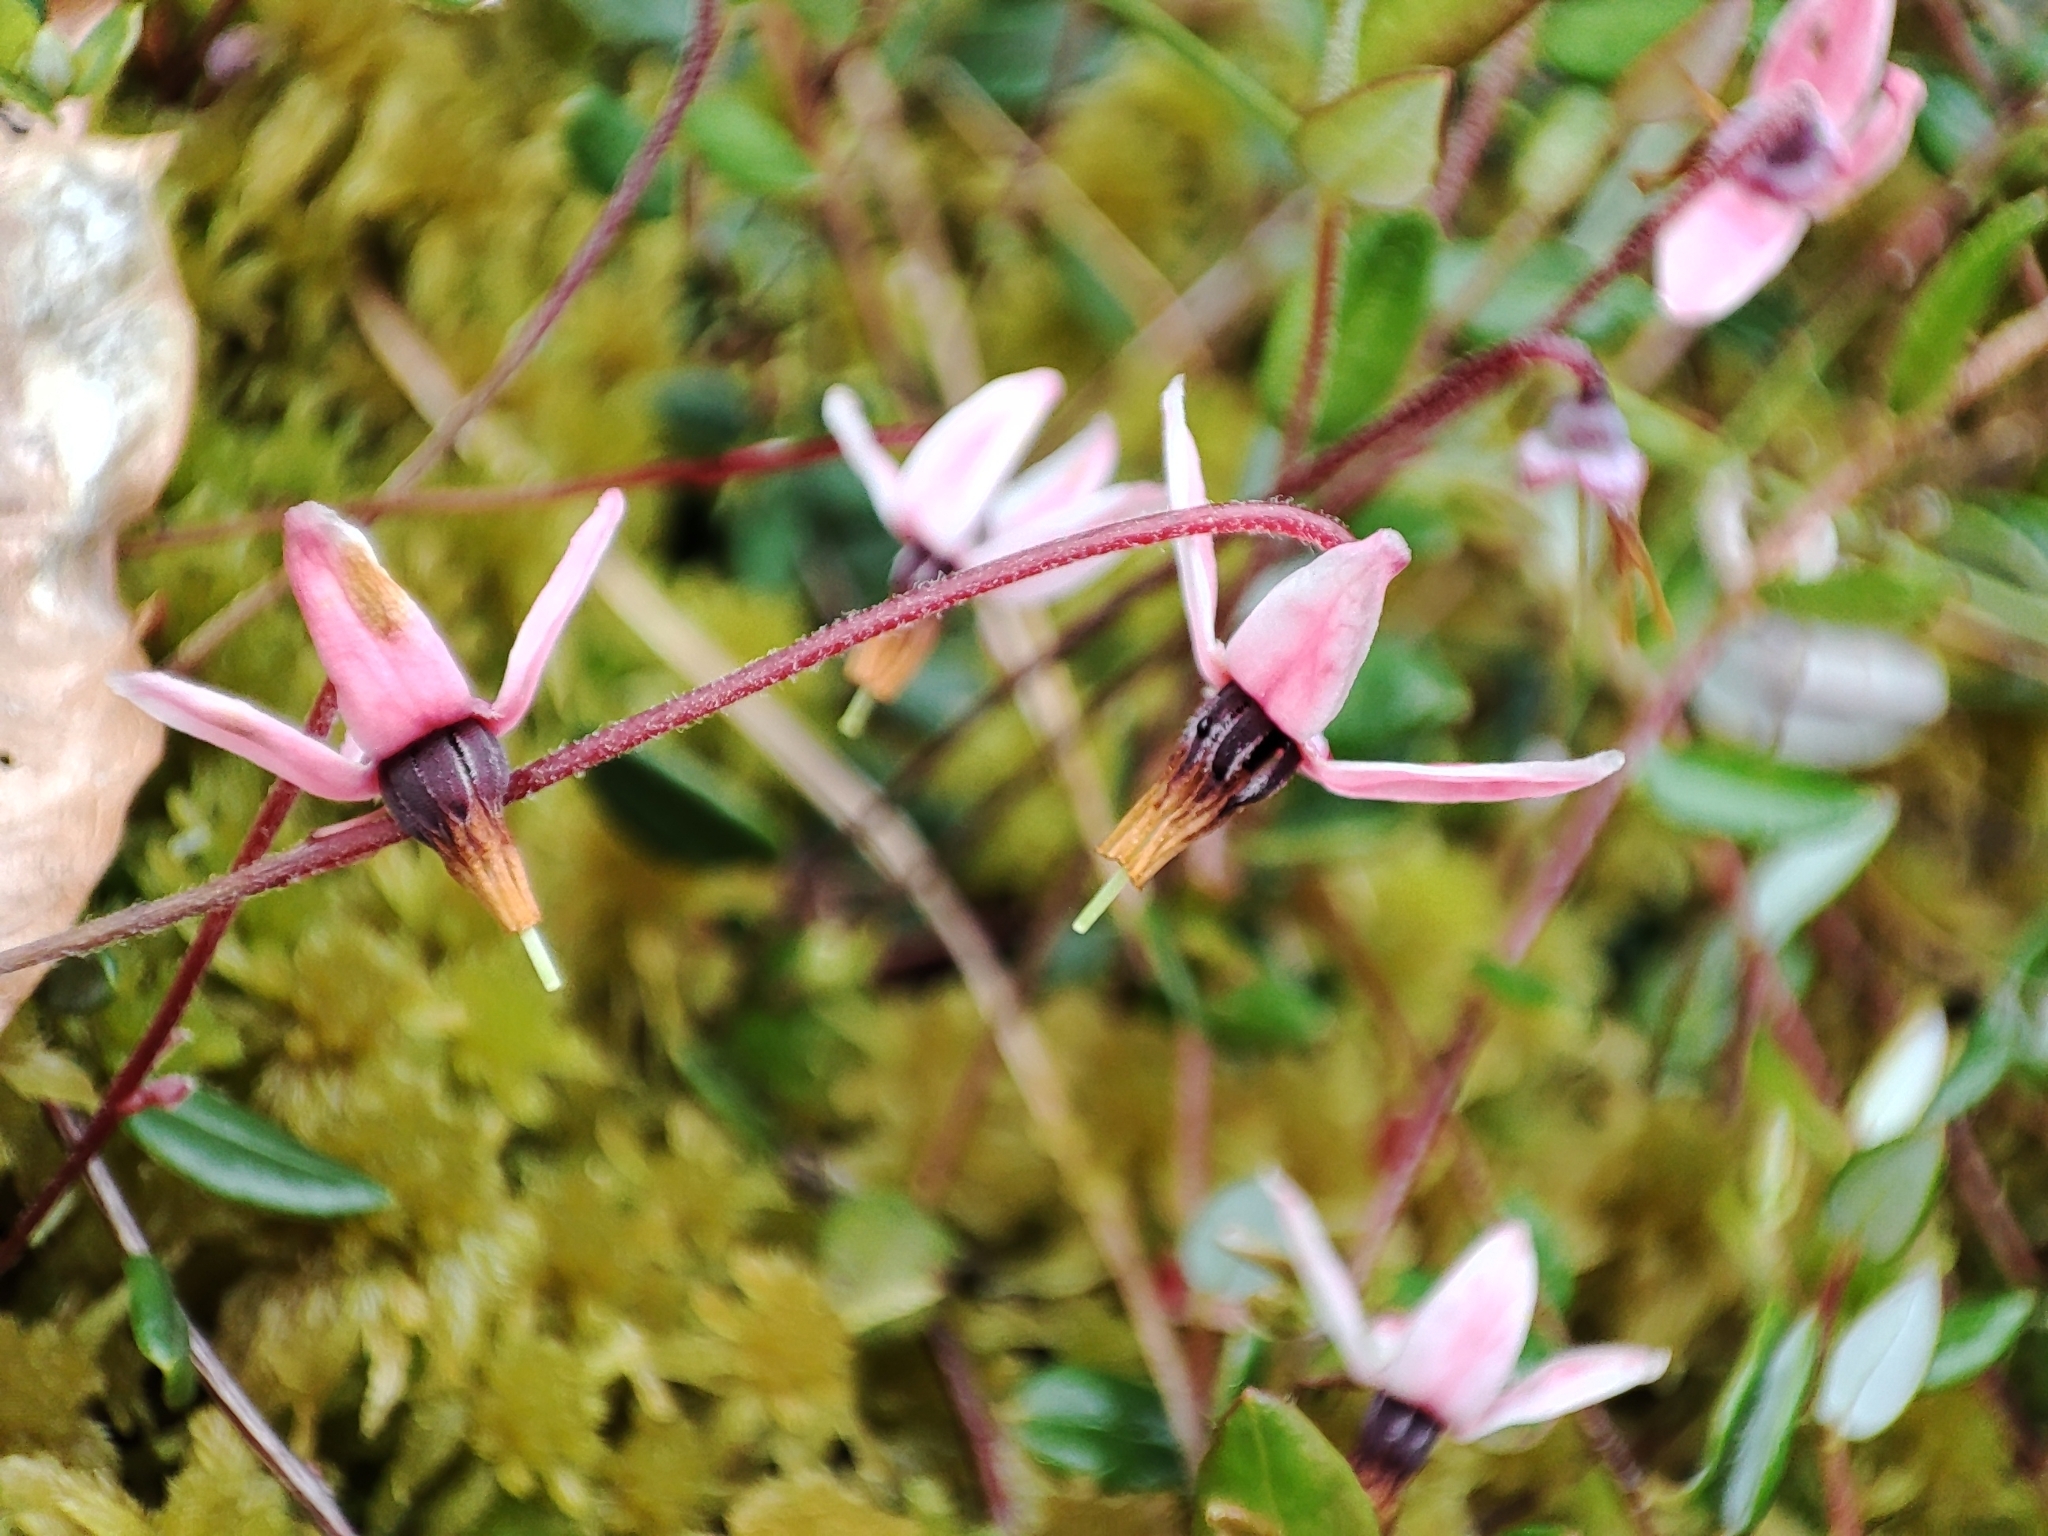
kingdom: Plantae
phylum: Tracheophyta
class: Magnoliopsida
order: Ericales
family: Ericaceae
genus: Vaccinium
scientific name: Vaccinium oxycoccos
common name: Cranberry
